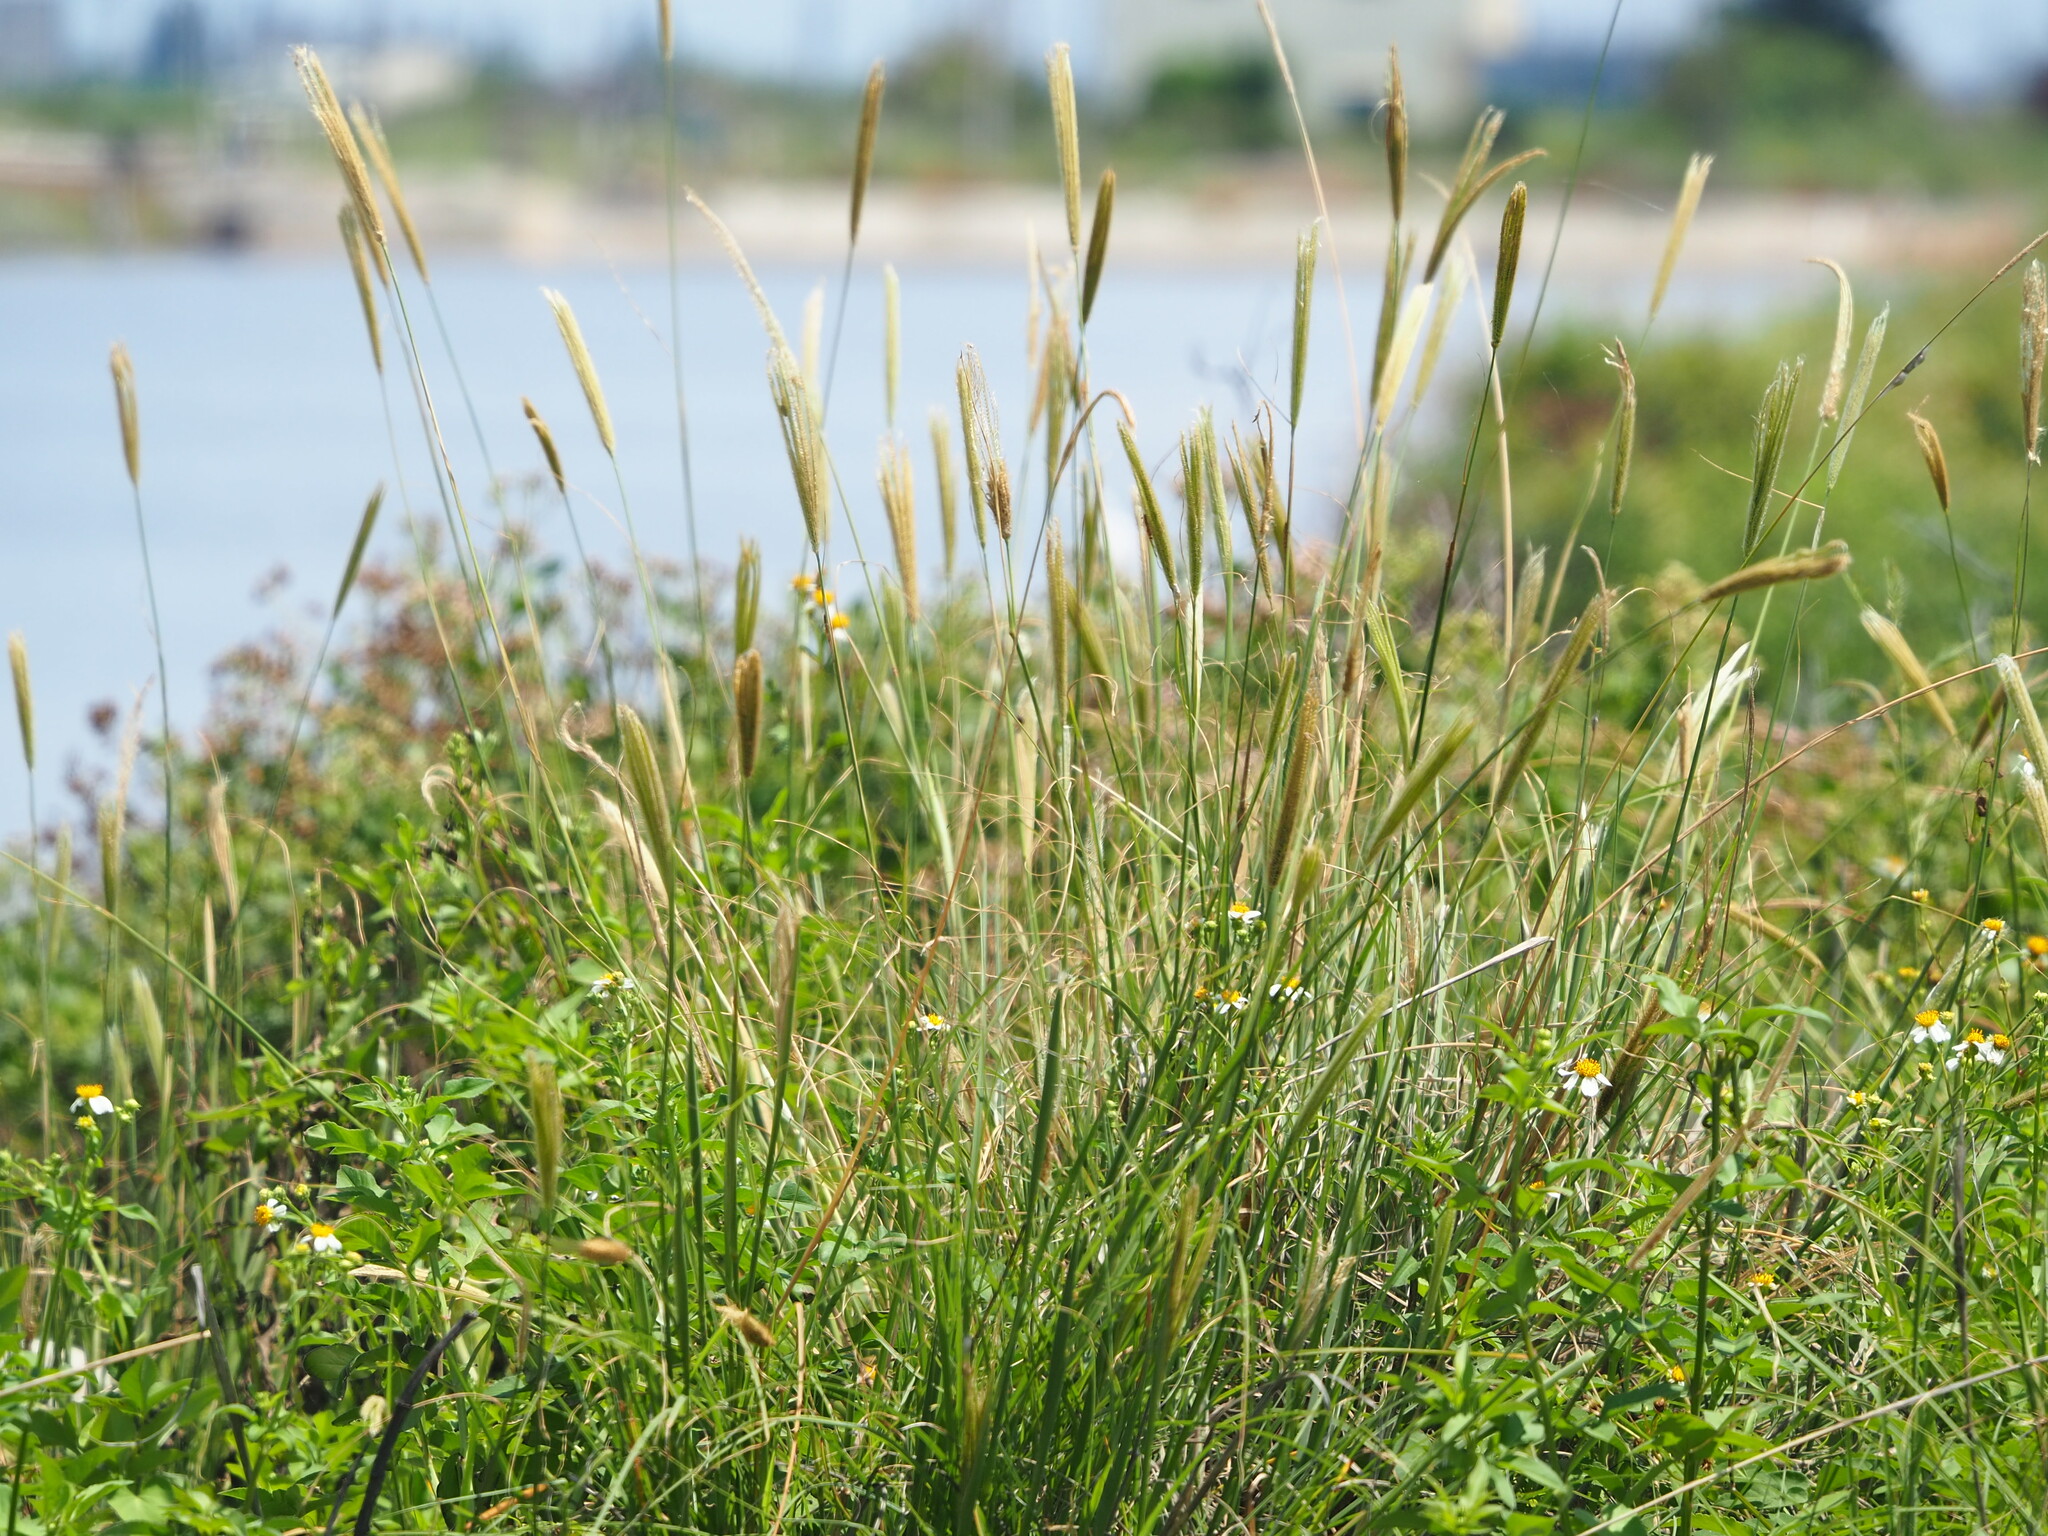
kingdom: Plantae
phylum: Tracheophyta
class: Liliopsida
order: Poales
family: Poaceae
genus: Chloris
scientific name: Chloris formosana
